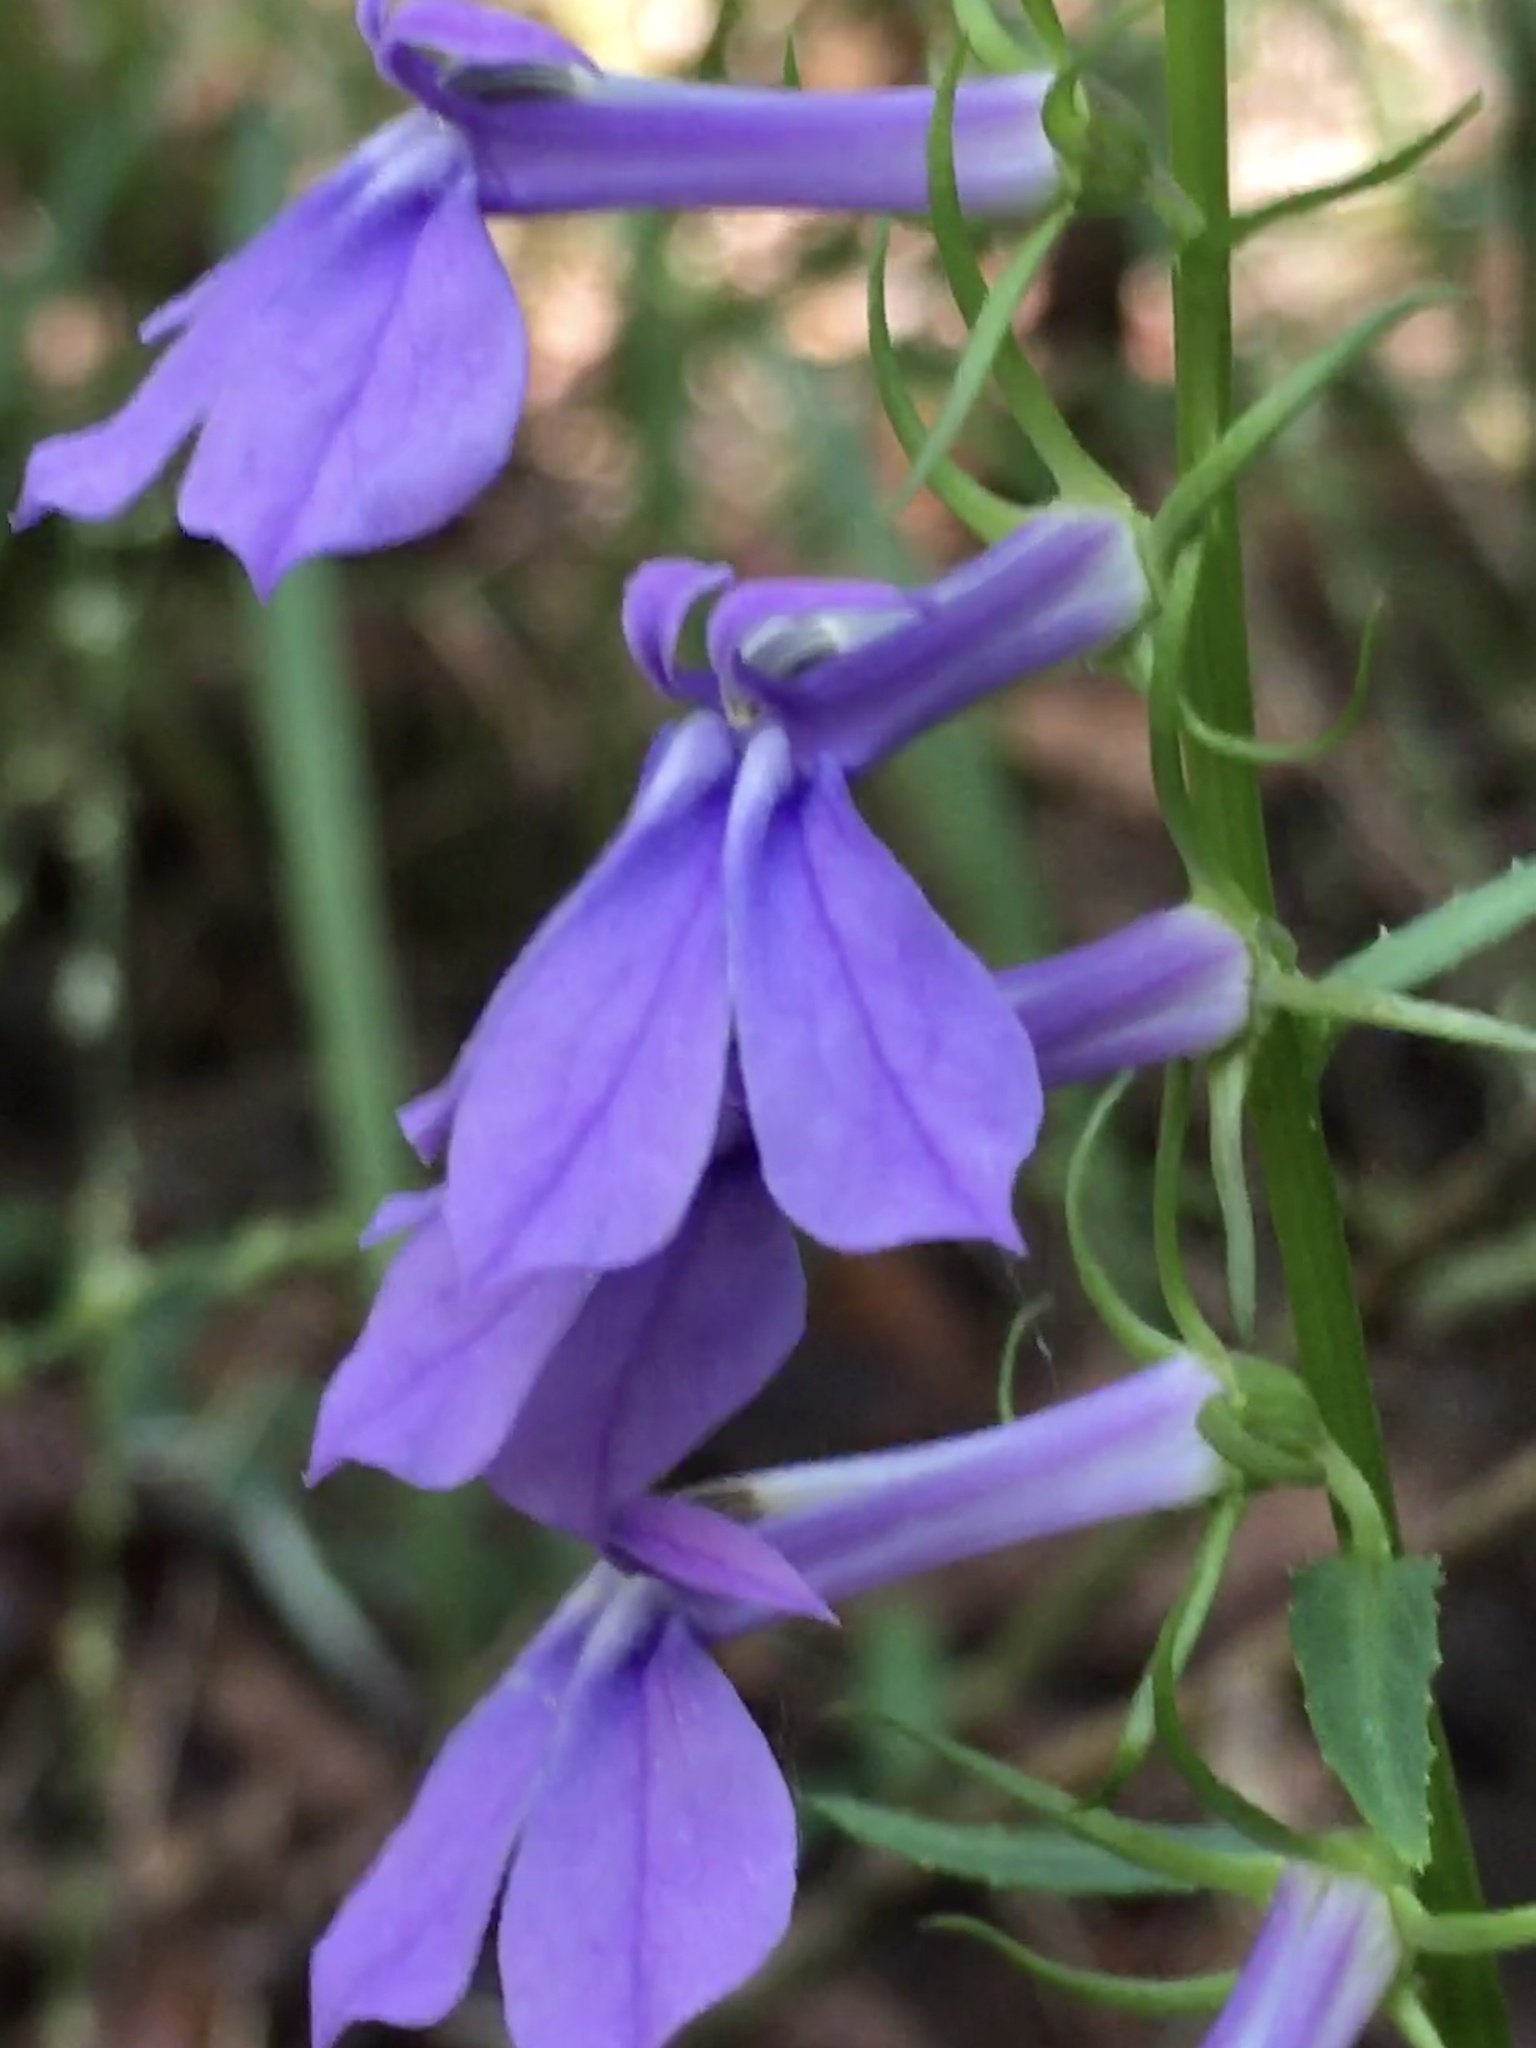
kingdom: Plantae
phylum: Tracheophyta
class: Magnoliopsida
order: Asterales
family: Campanulaceae
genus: Lobelia
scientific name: Lobelia amoena
